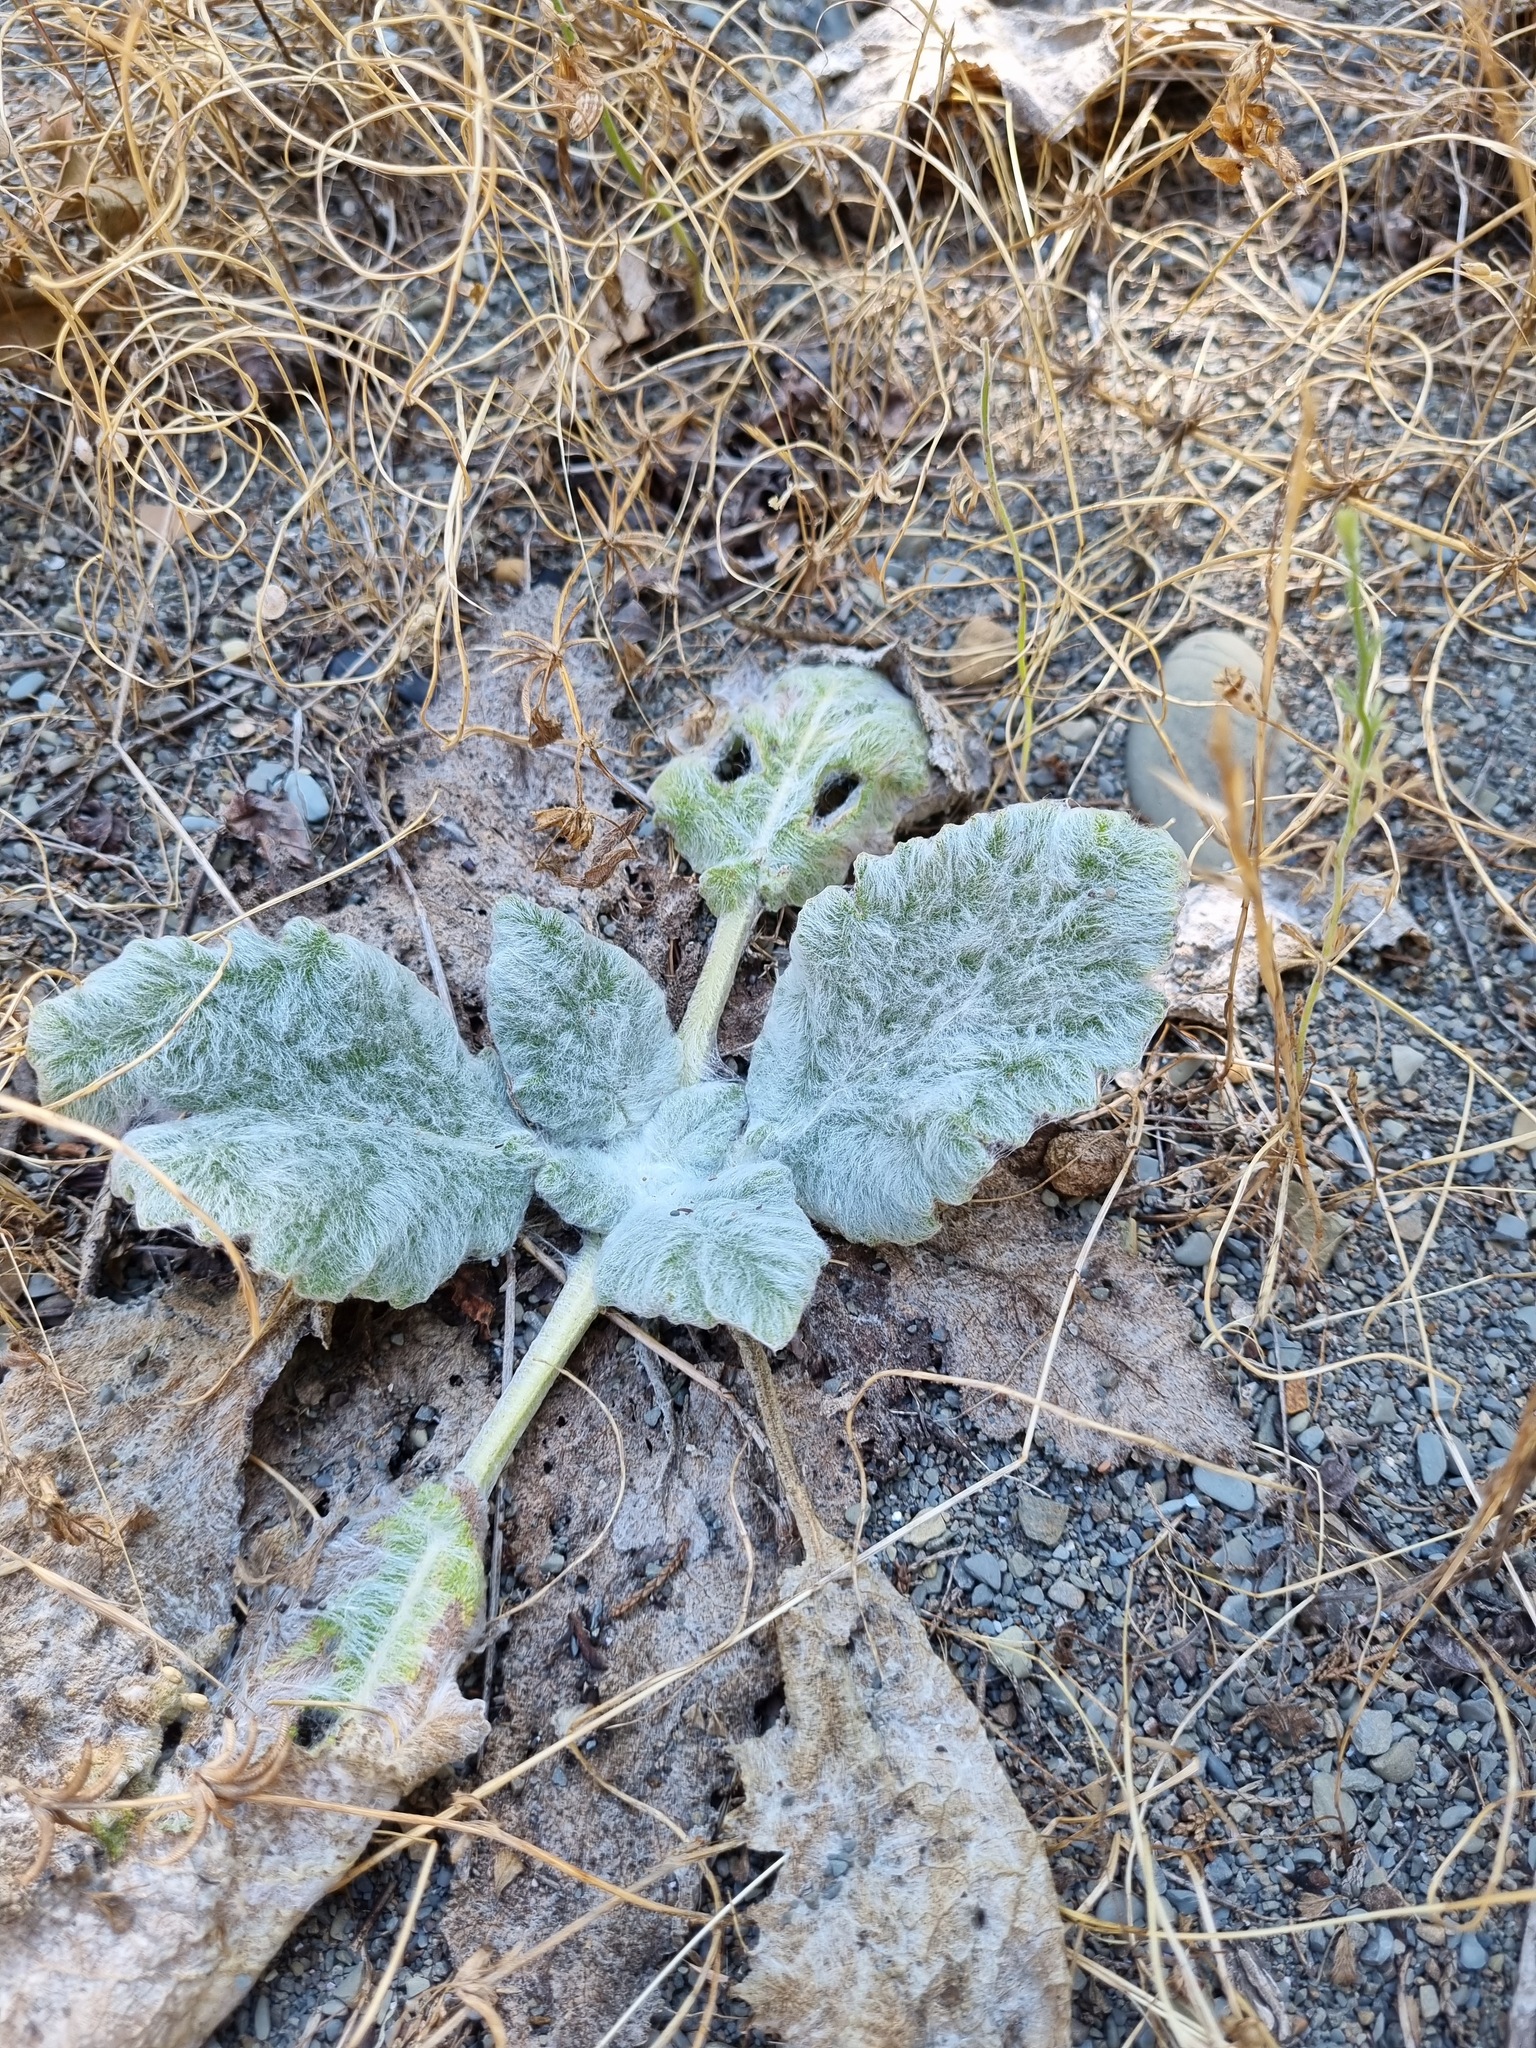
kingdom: Plantae
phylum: Tracheophyta
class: Magnoliopsida
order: Lamiales
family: Lamiaceae
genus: Salvia
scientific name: Salvia aethiopis
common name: Mediterranean sage
